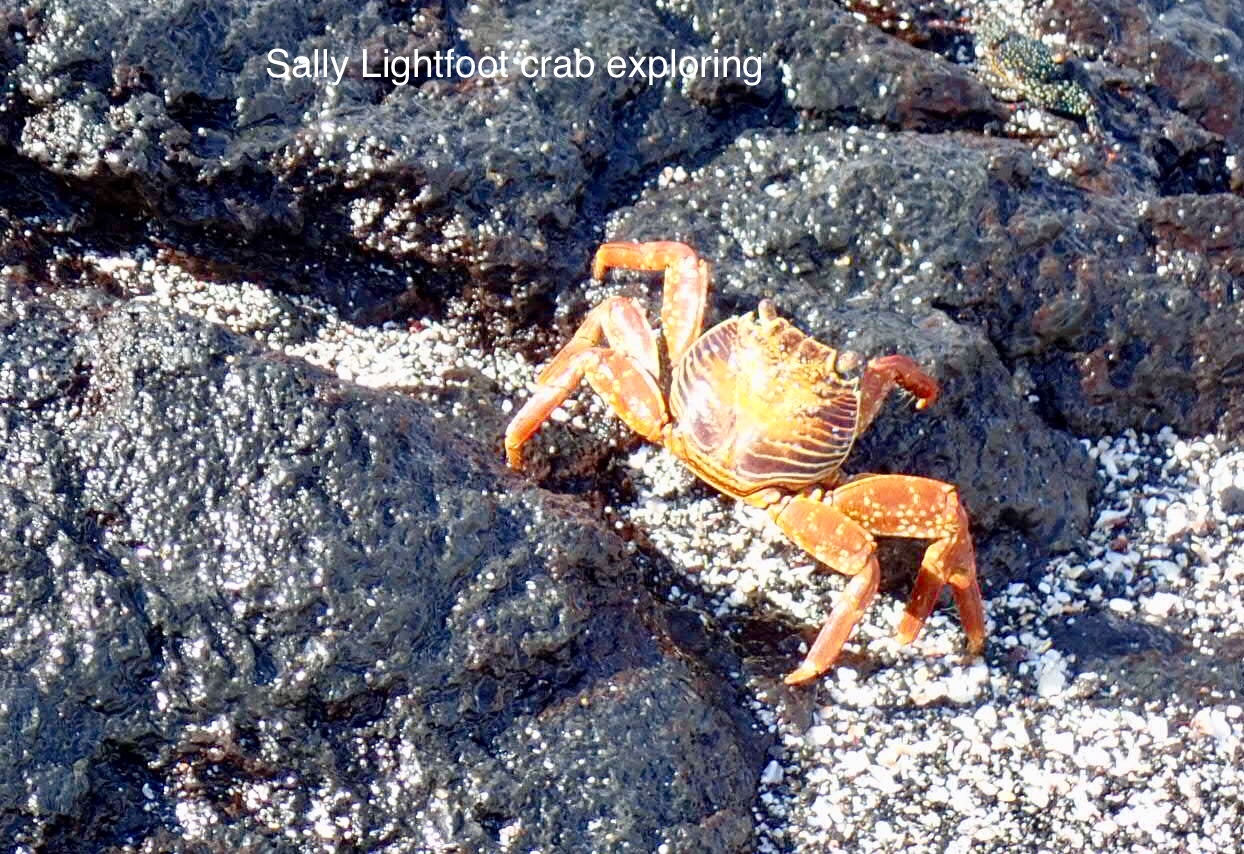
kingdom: Animalia
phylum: Arthropoda
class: Malacostraca
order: Decapoda
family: Grapsidae
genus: Grapsus
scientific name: Grapsus grapsus
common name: Sally lightfoot
